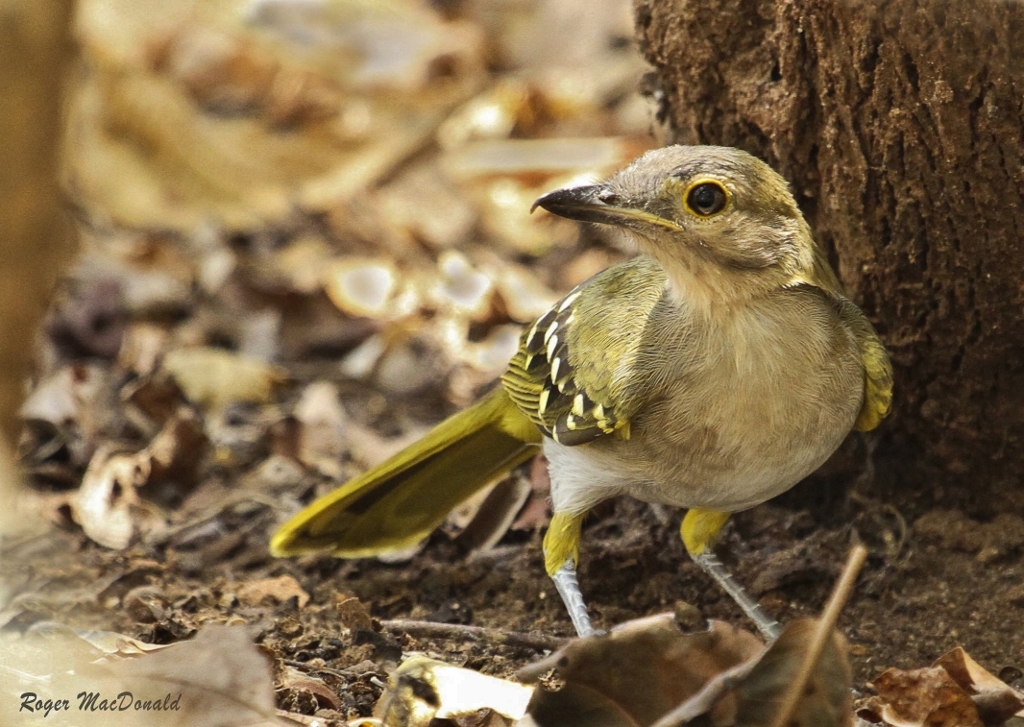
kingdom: Animalia
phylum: Chordata
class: Aves
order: Passeriformes
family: Nicatoridae
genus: Nicator
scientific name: Nicator gularis
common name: Eastern nicator
